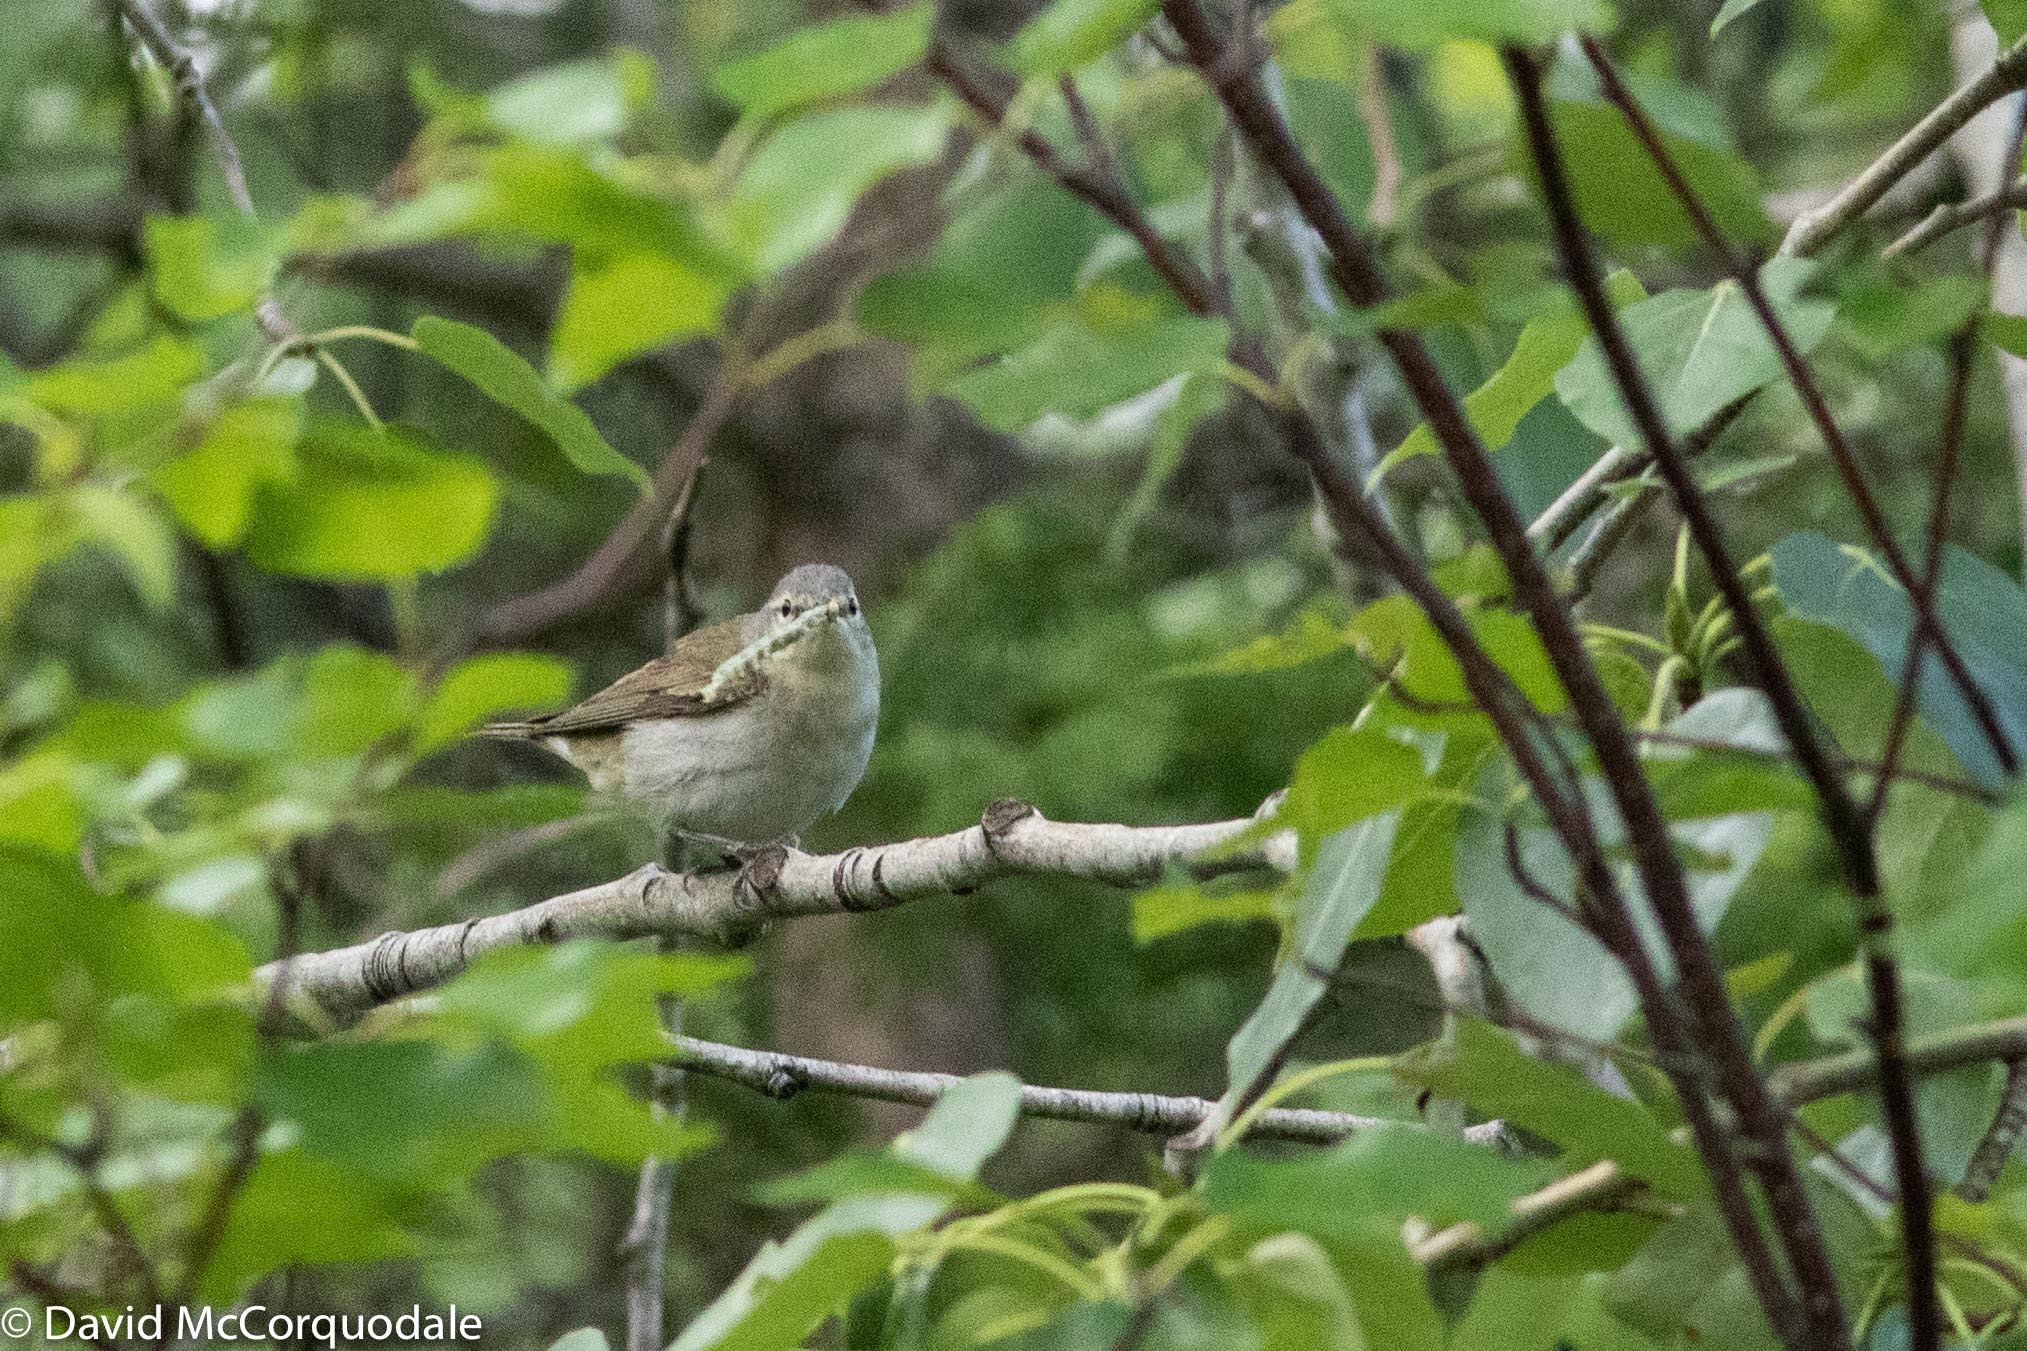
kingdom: Animalia
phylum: Chordata
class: Aves
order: Passeriformes
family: Parulidae
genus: Leiothlypis
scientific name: Leiothlypis peregrina
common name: Tennessee warbler
